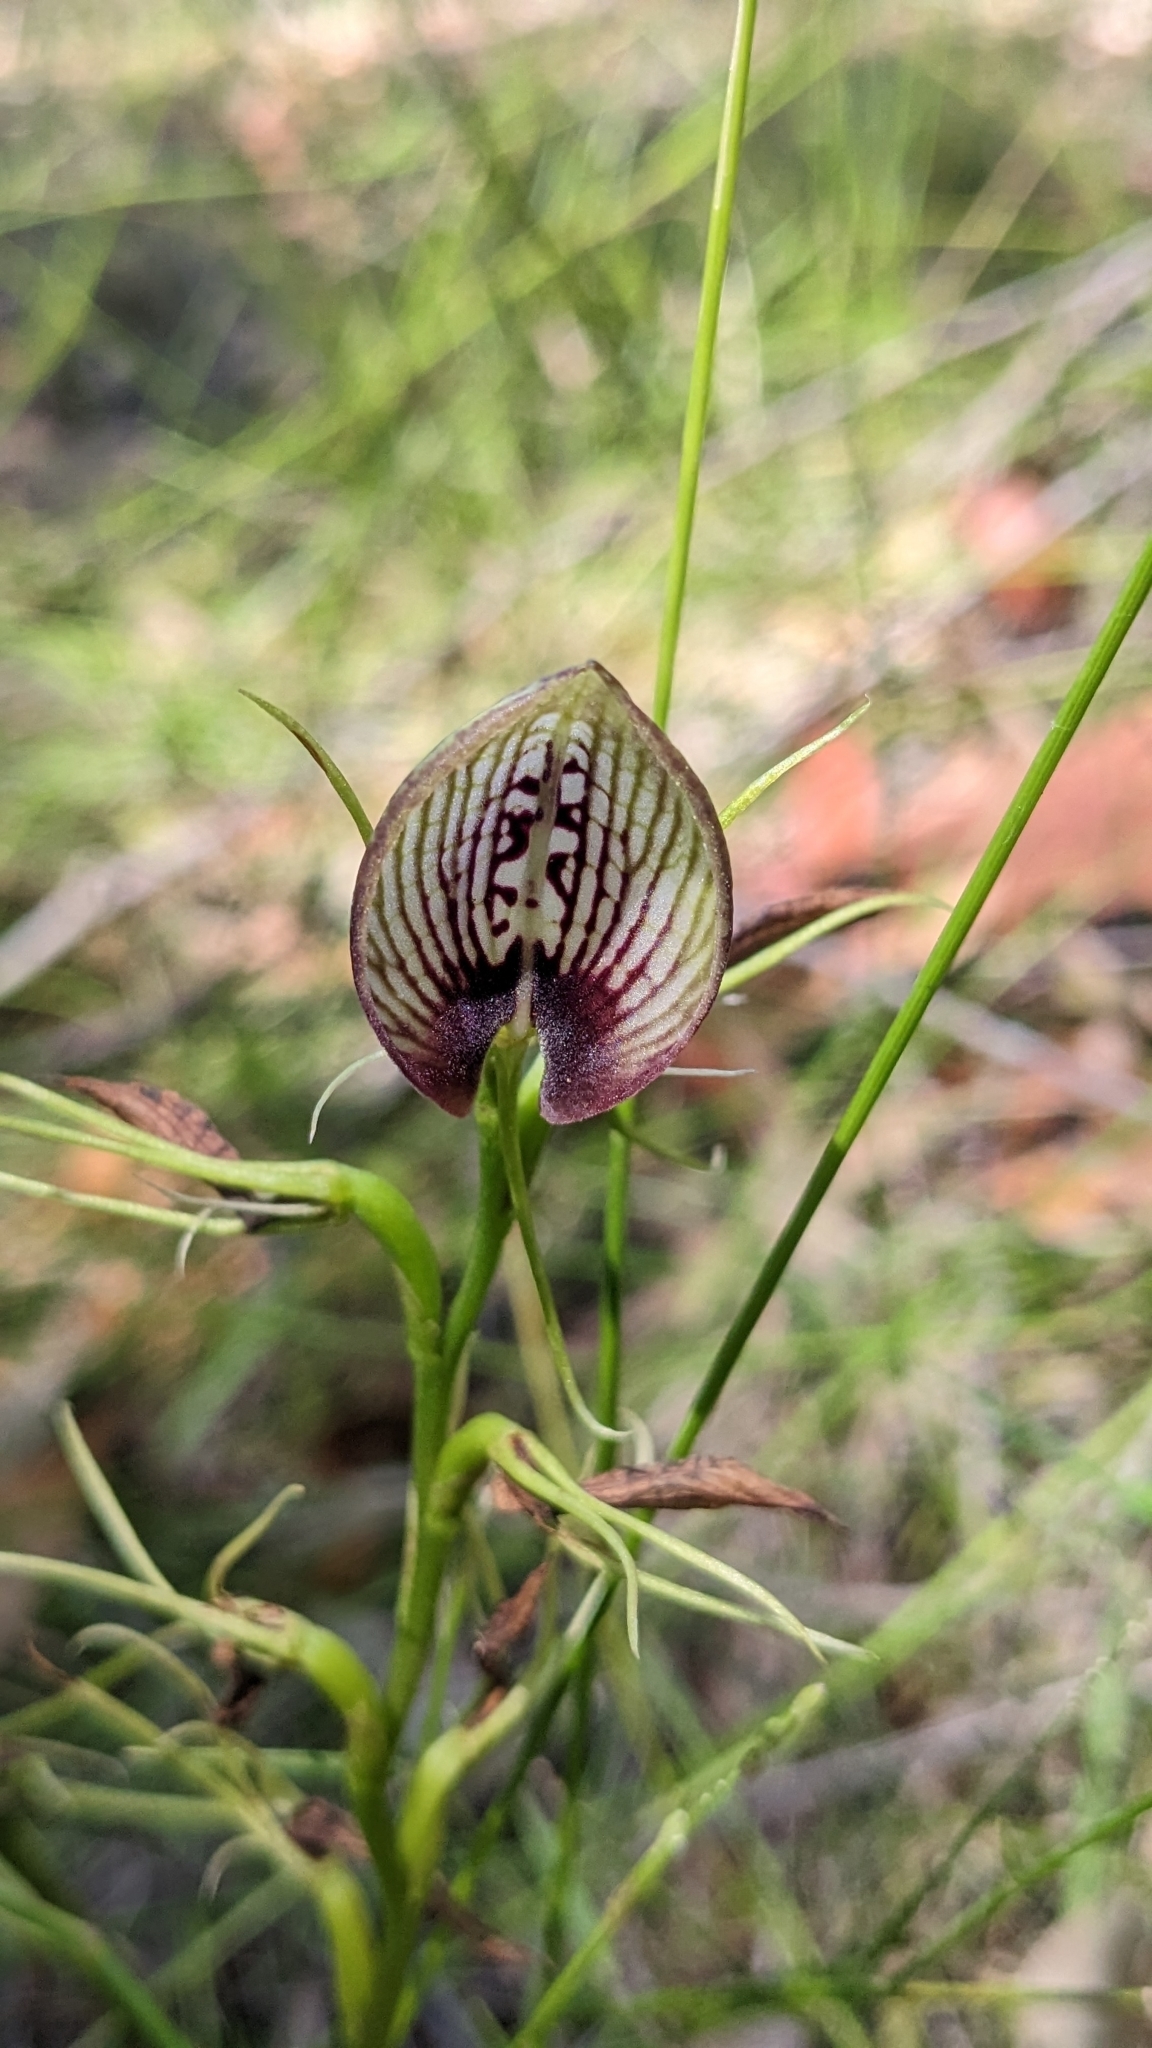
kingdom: Plantae
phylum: Tracheophyta
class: Liliopsida
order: Asparagales
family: Orchidaceae
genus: Cryptostylis
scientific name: Cryptostylis erecta
